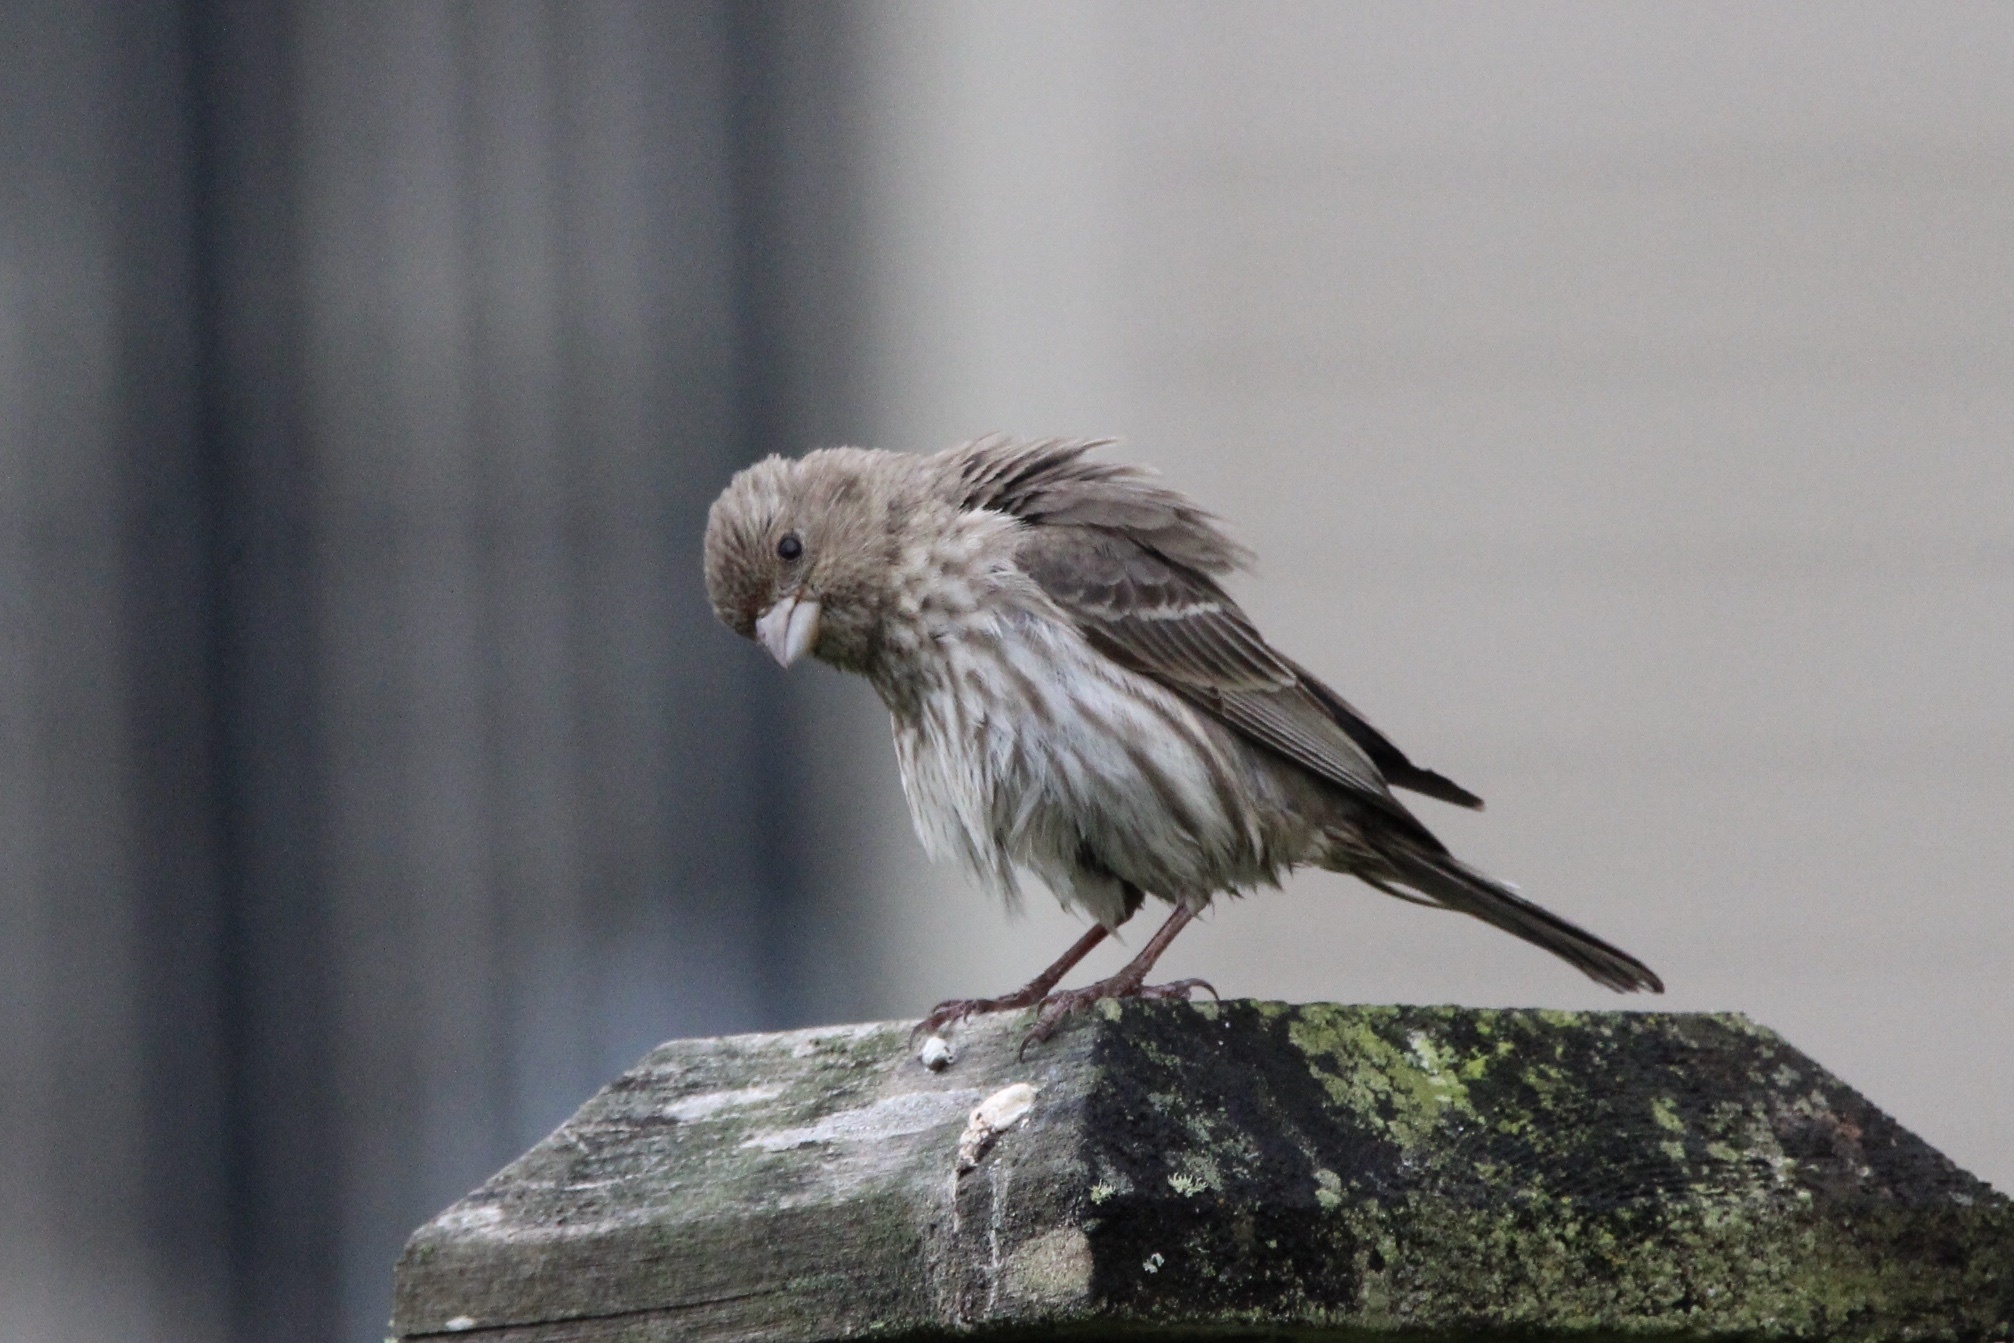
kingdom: Animalia
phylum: Chordata
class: Aves
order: Passeriformes
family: Fringillidae
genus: Haemorhous
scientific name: Haemorhous mexicanus
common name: House finch
